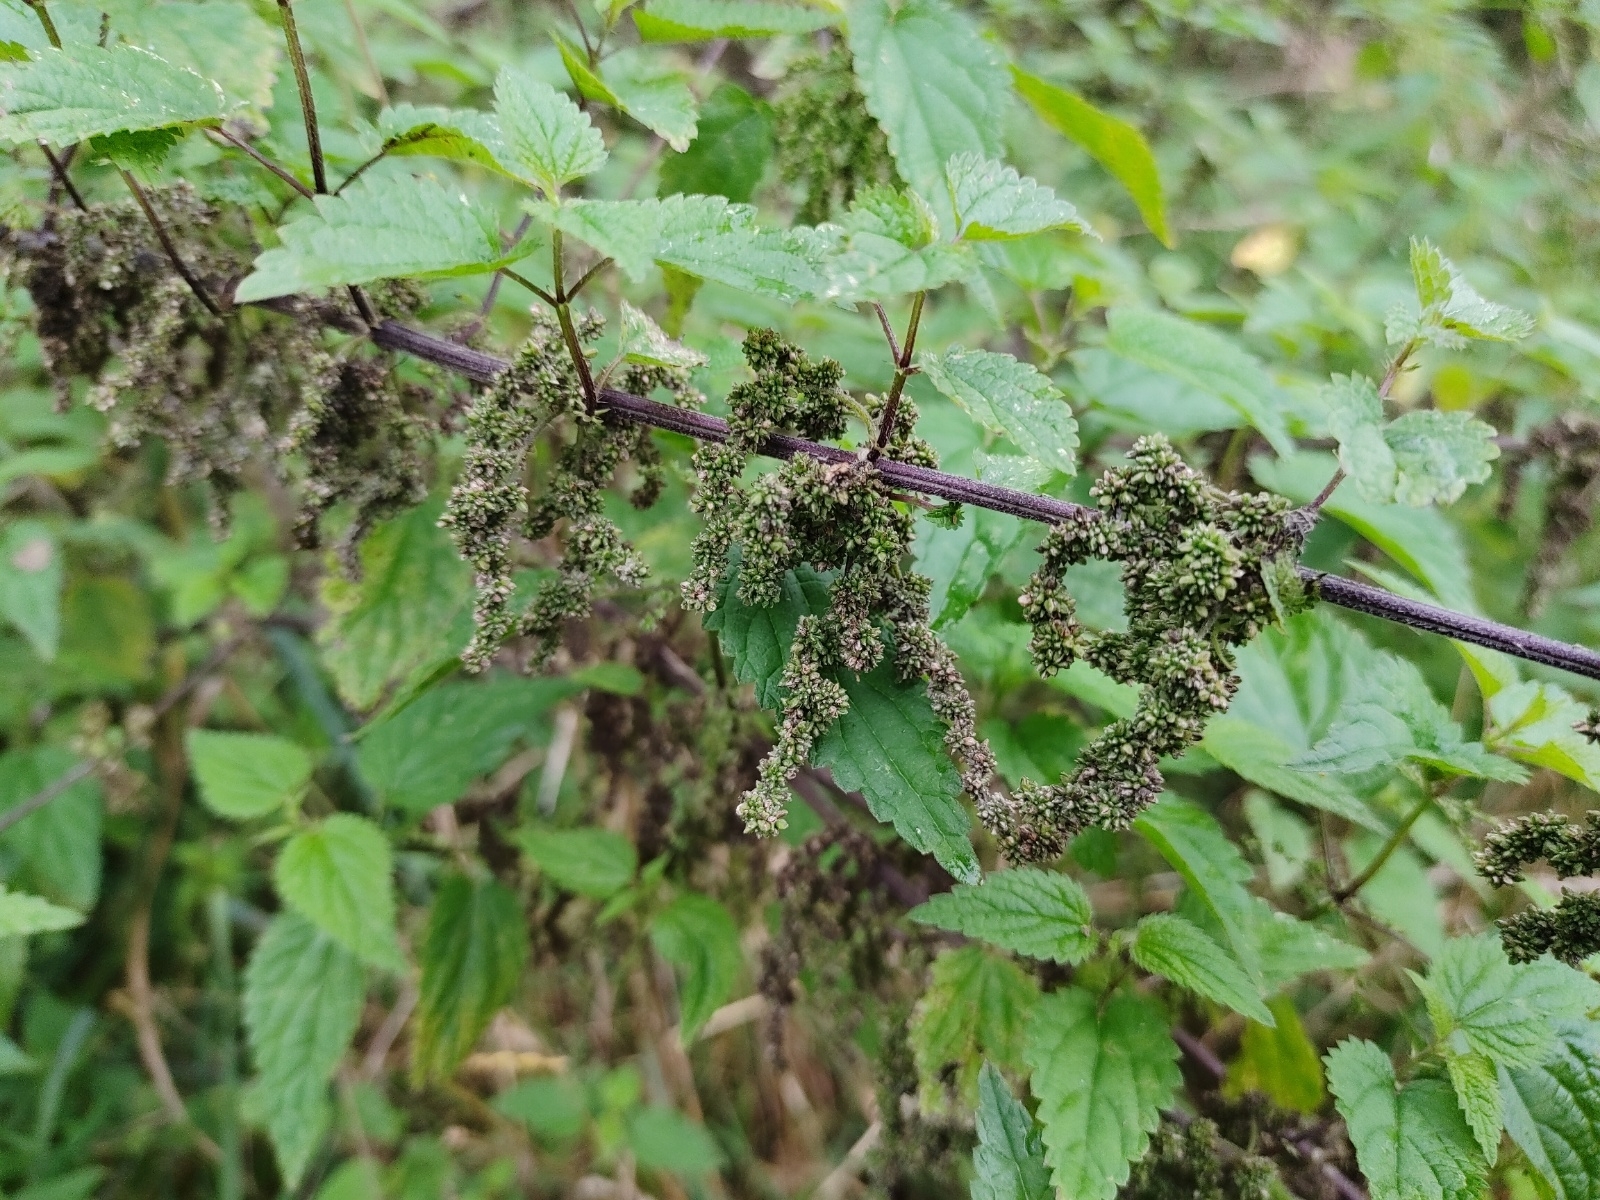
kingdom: Plantae
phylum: Tracheophyta
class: Magnoliopsida
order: Rosales
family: Urticaceae
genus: Urtica
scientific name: Urtica dioica
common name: Common nettle
